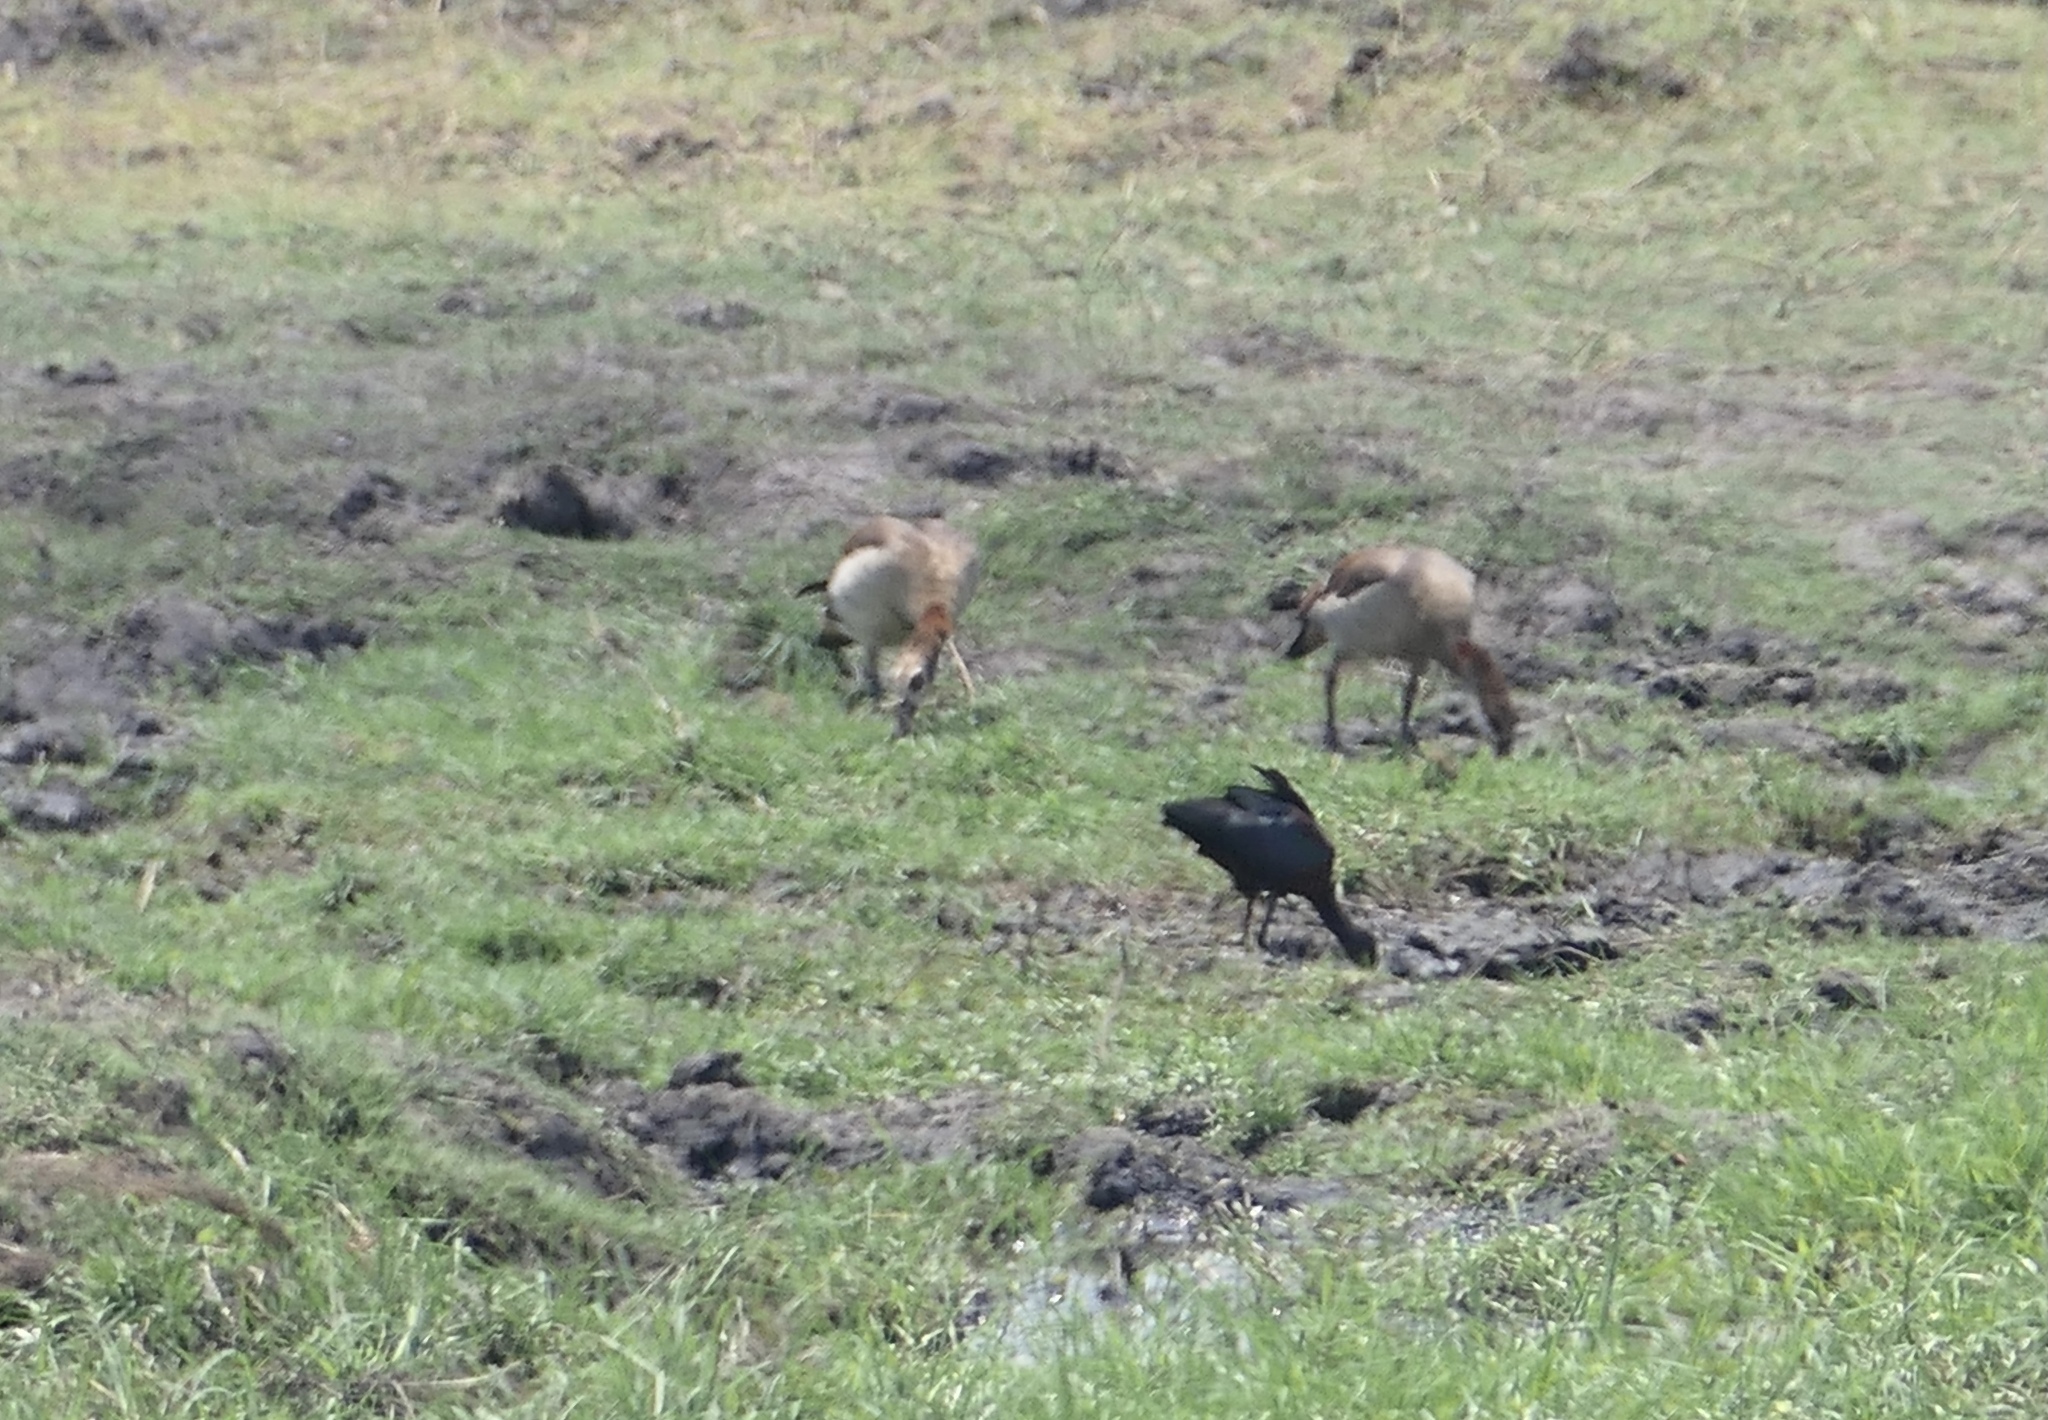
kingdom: Animalia
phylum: Chordata
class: Aves
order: Pelecaniformes
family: Threskiornithidae
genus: Plegadis
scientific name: Plegadis falcinellus
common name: Glossy ibis
